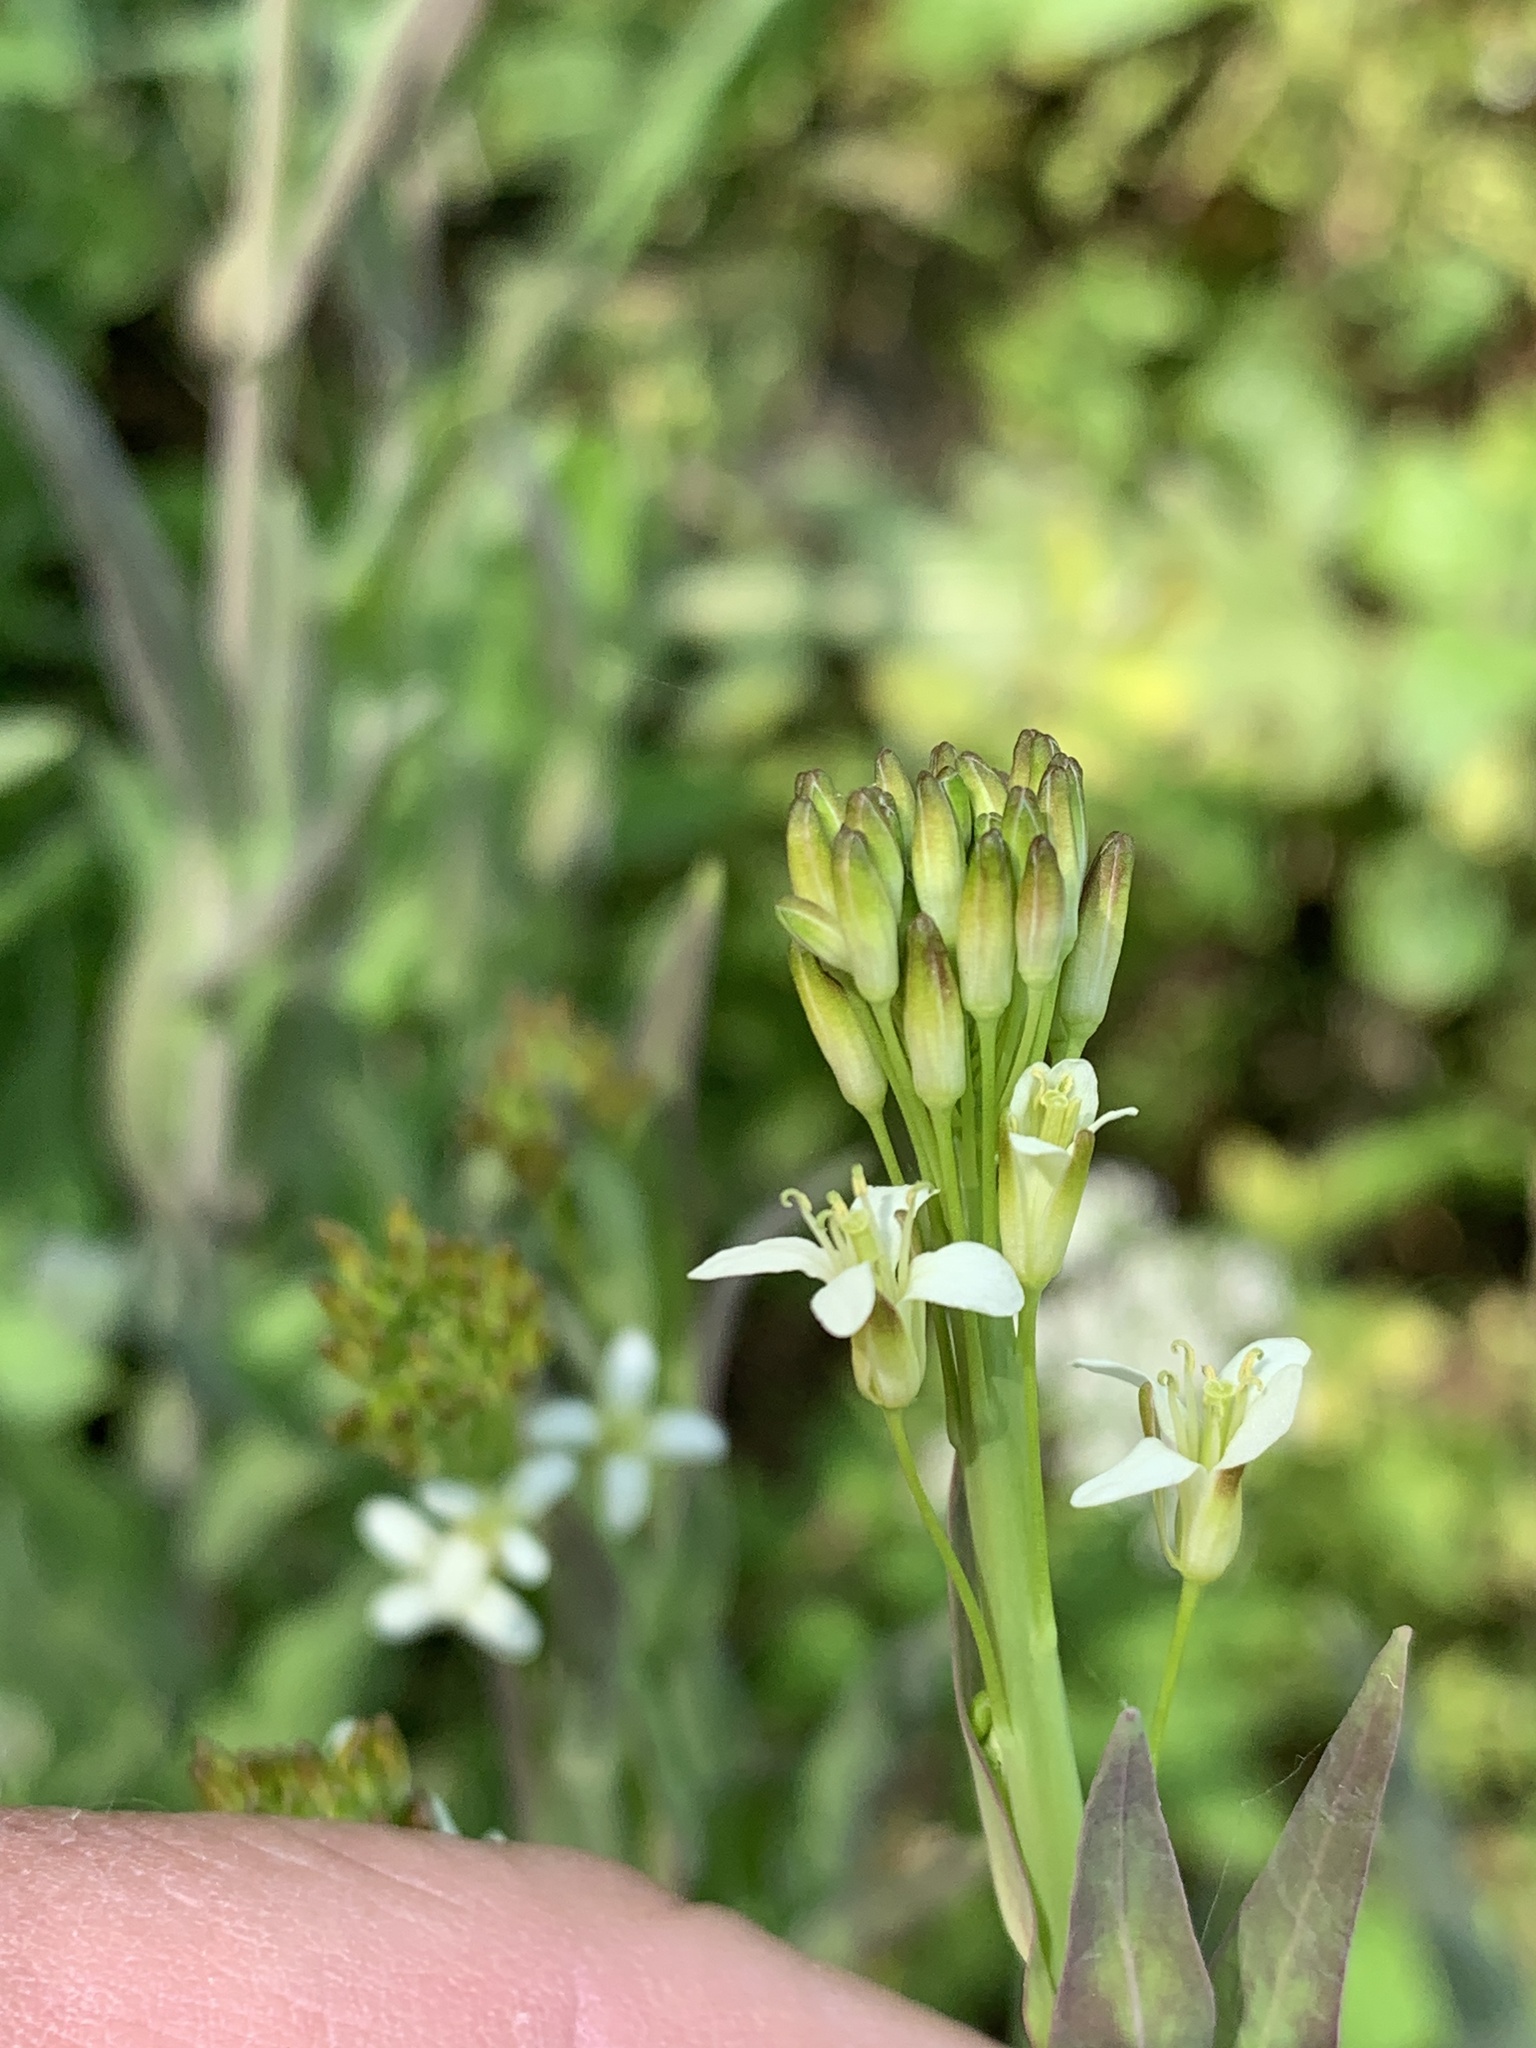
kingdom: Plantae
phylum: Tracheophyta
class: Magnoliopsida
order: Brassicales
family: Brassicaceae
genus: Turritis
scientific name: Turritis glabra
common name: Tower rockcress
